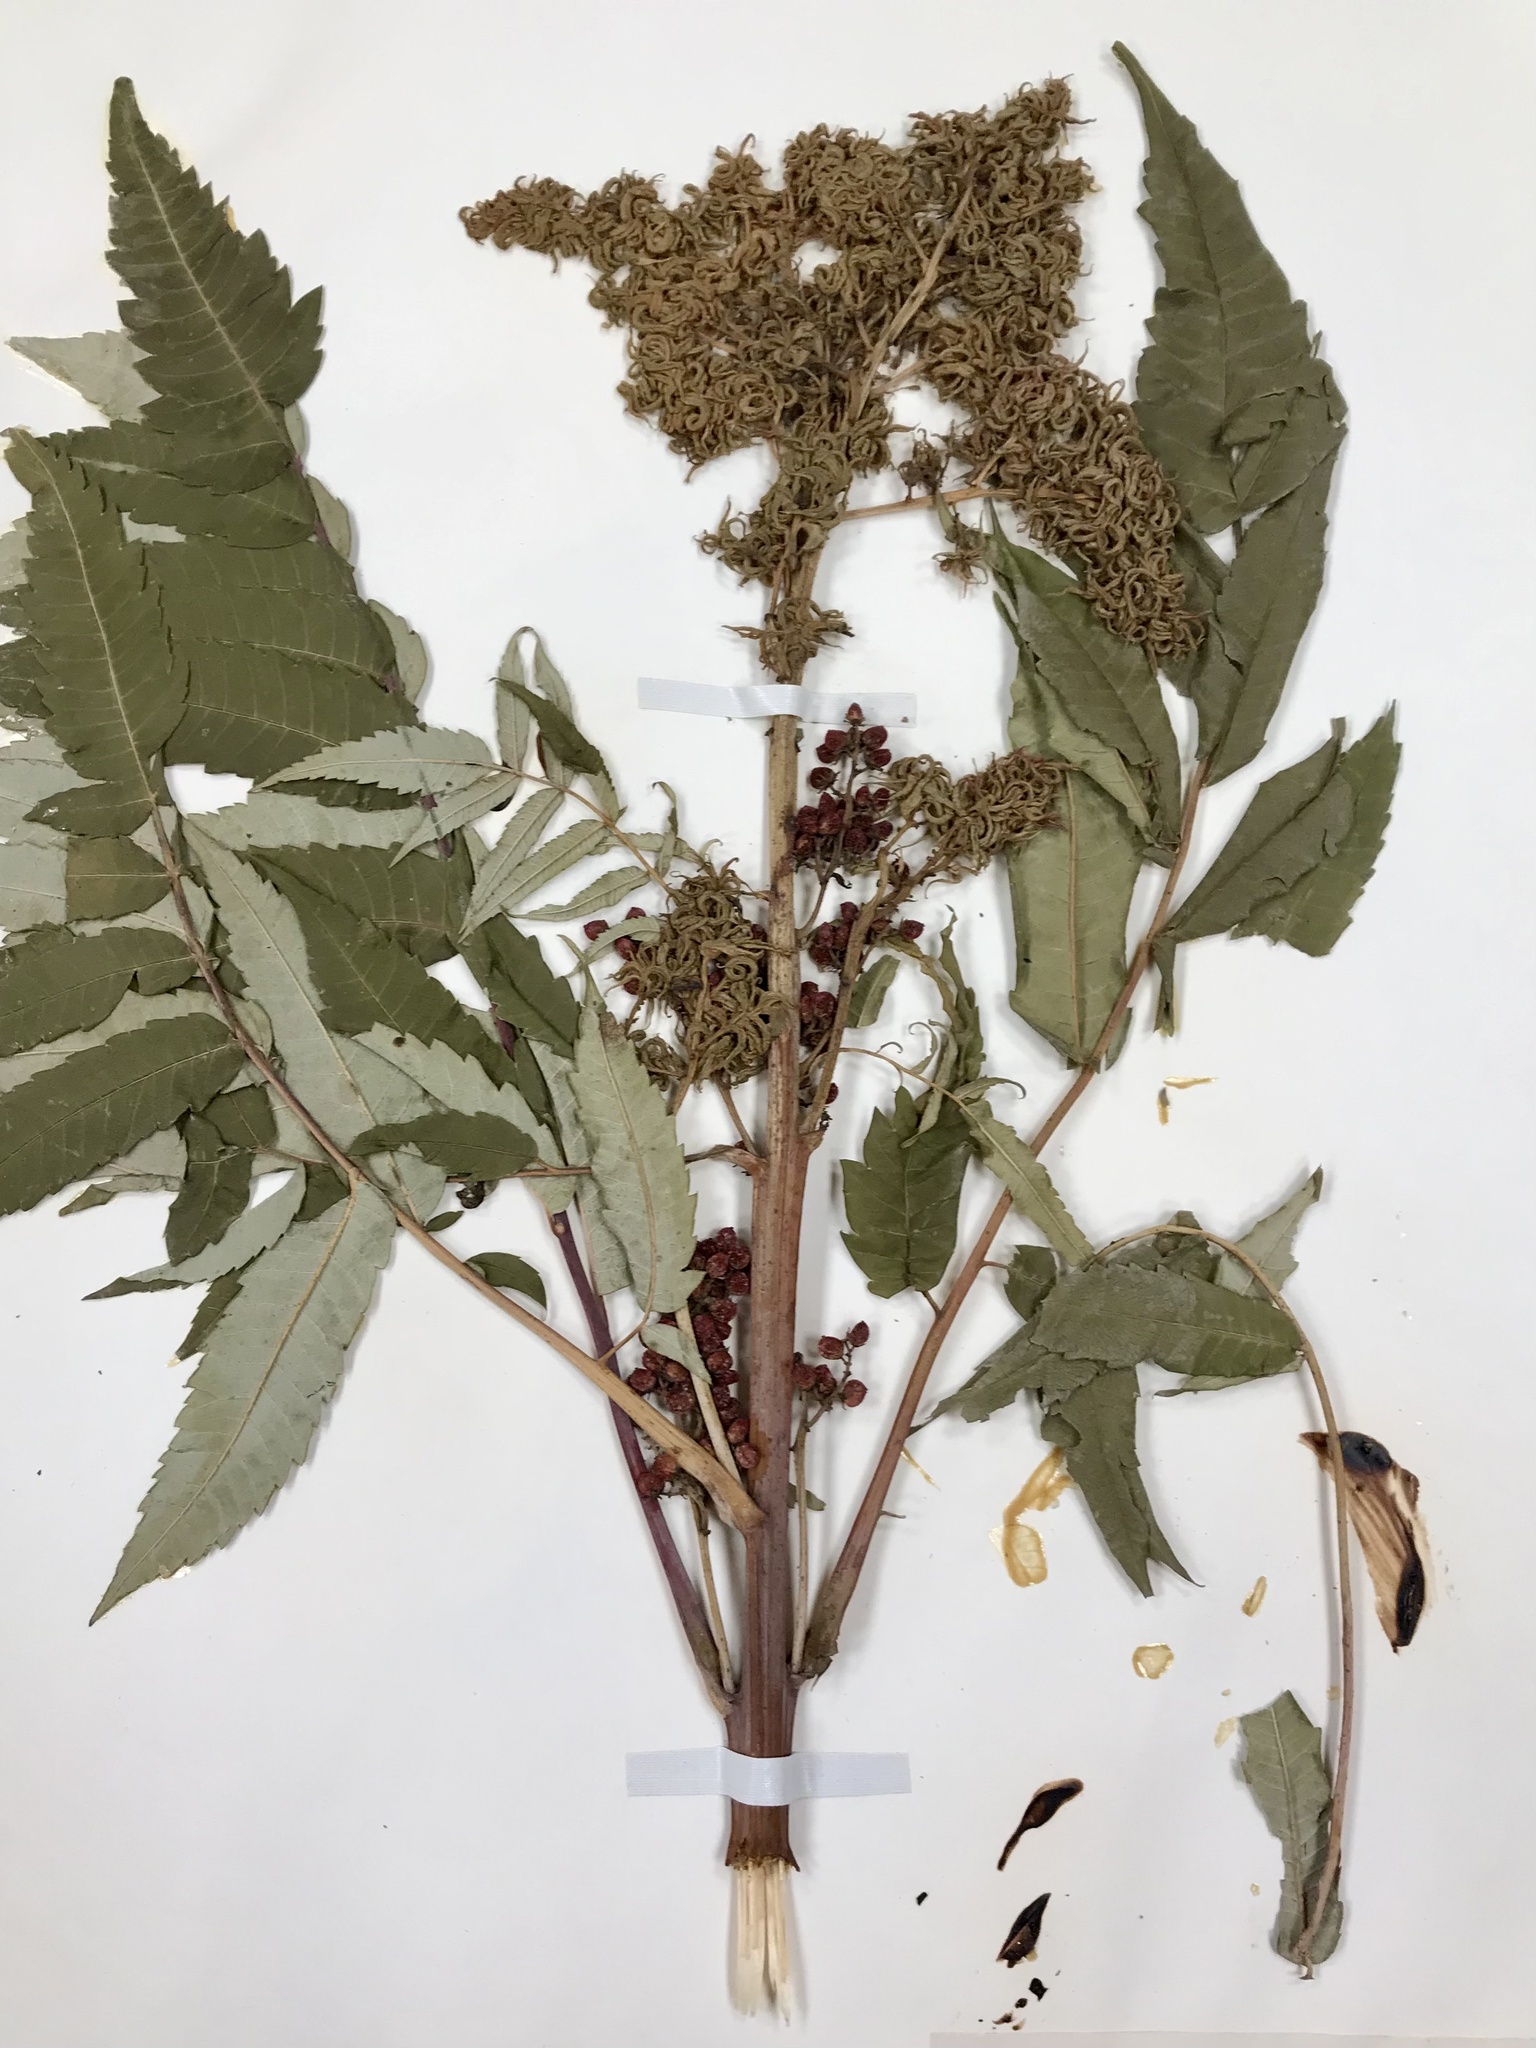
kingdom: Animalia
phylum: Arthropoda
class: Arachnida
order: Trombidiformes
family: Eriophyidae
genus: Eriophyes
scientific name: Eriophyes
